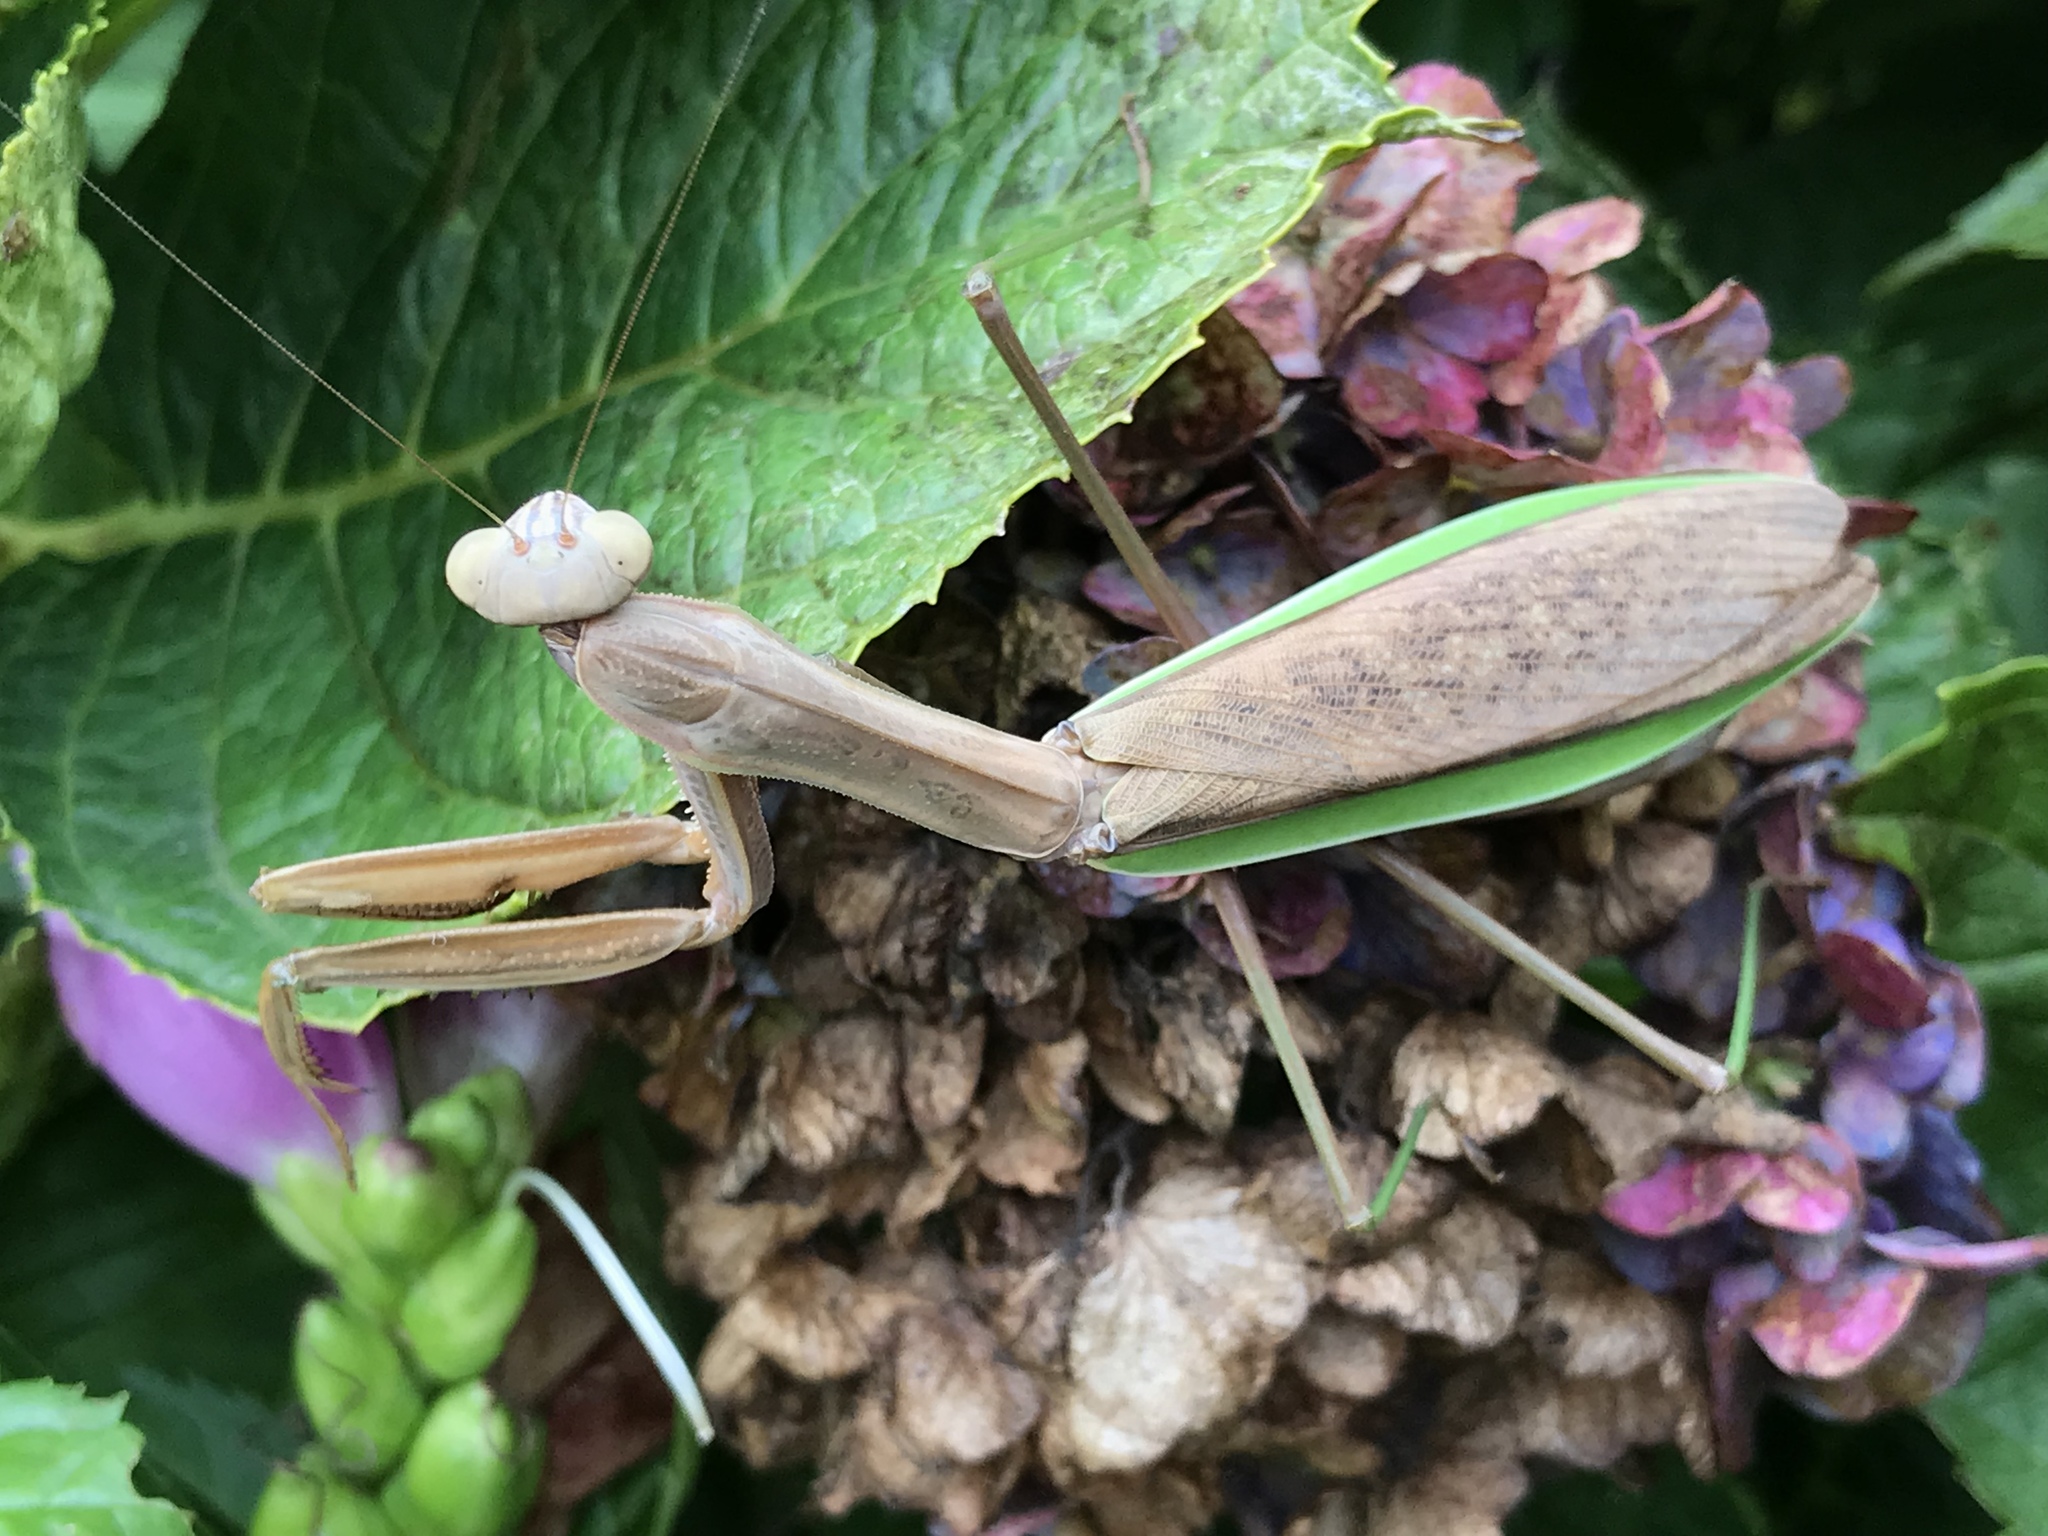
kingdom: Animalia
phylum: Arthropoda
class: Insecta
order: Mantodea
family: Mantidae
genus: Tenodera
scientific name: Tenodera sinensis
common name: Chinese mantis
